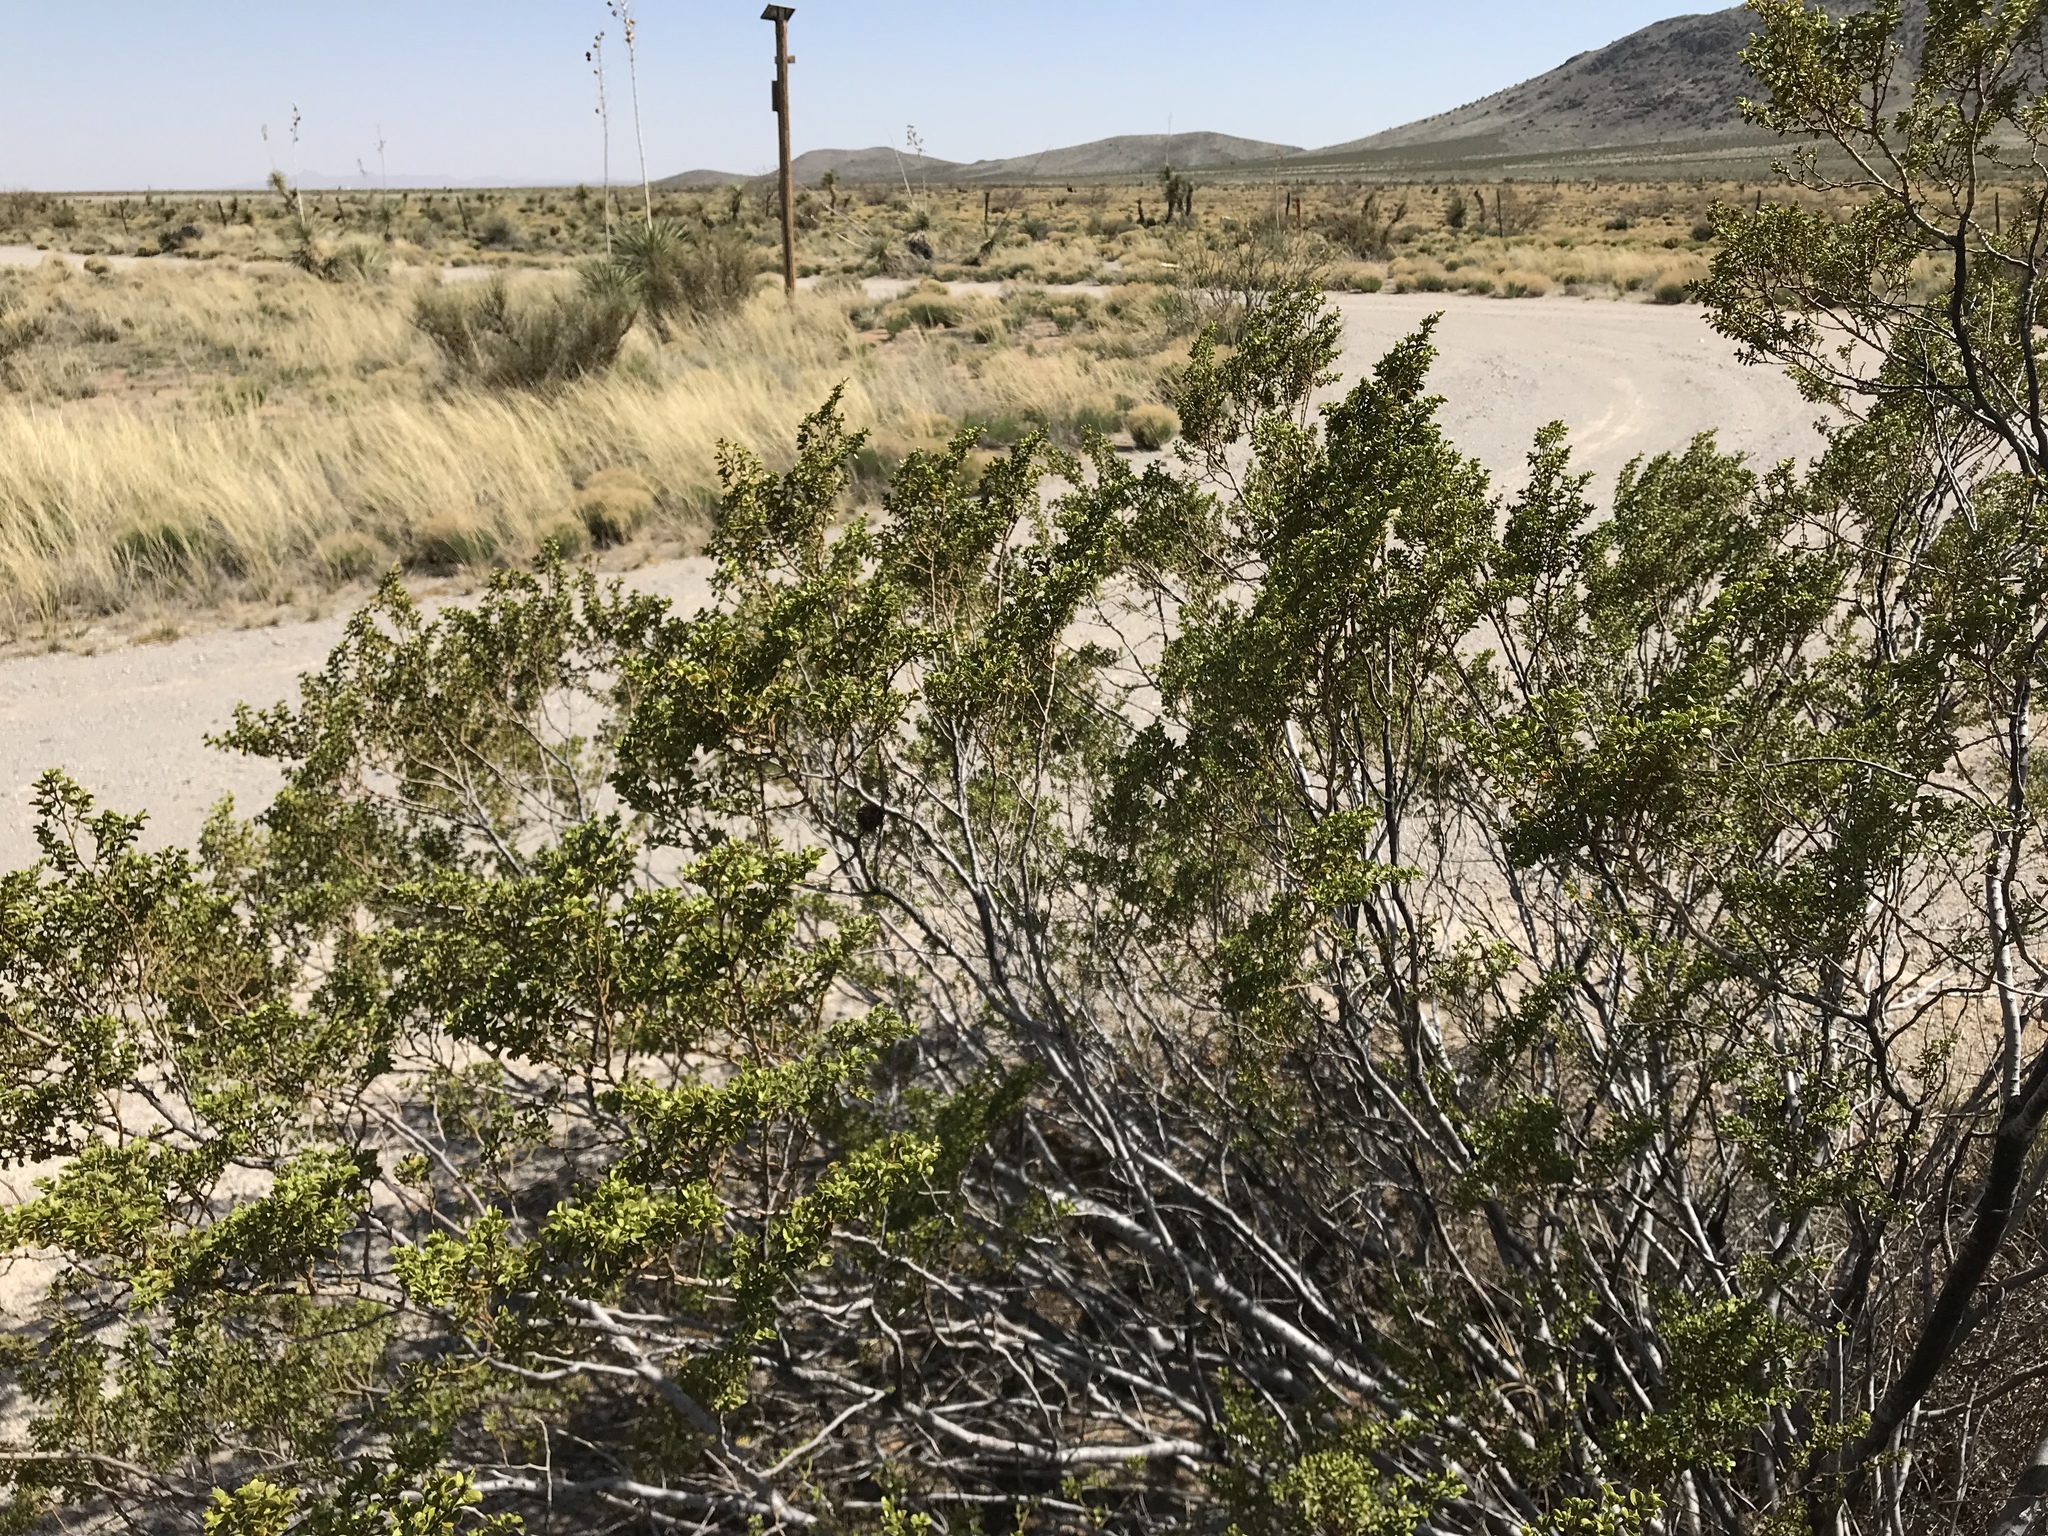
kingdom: Plantae
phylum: Tracheophyta
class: Magnoliopsida
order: Zygophyllales
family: Zygophyllaceae
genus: Larrea
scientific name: Larrea tridentata
